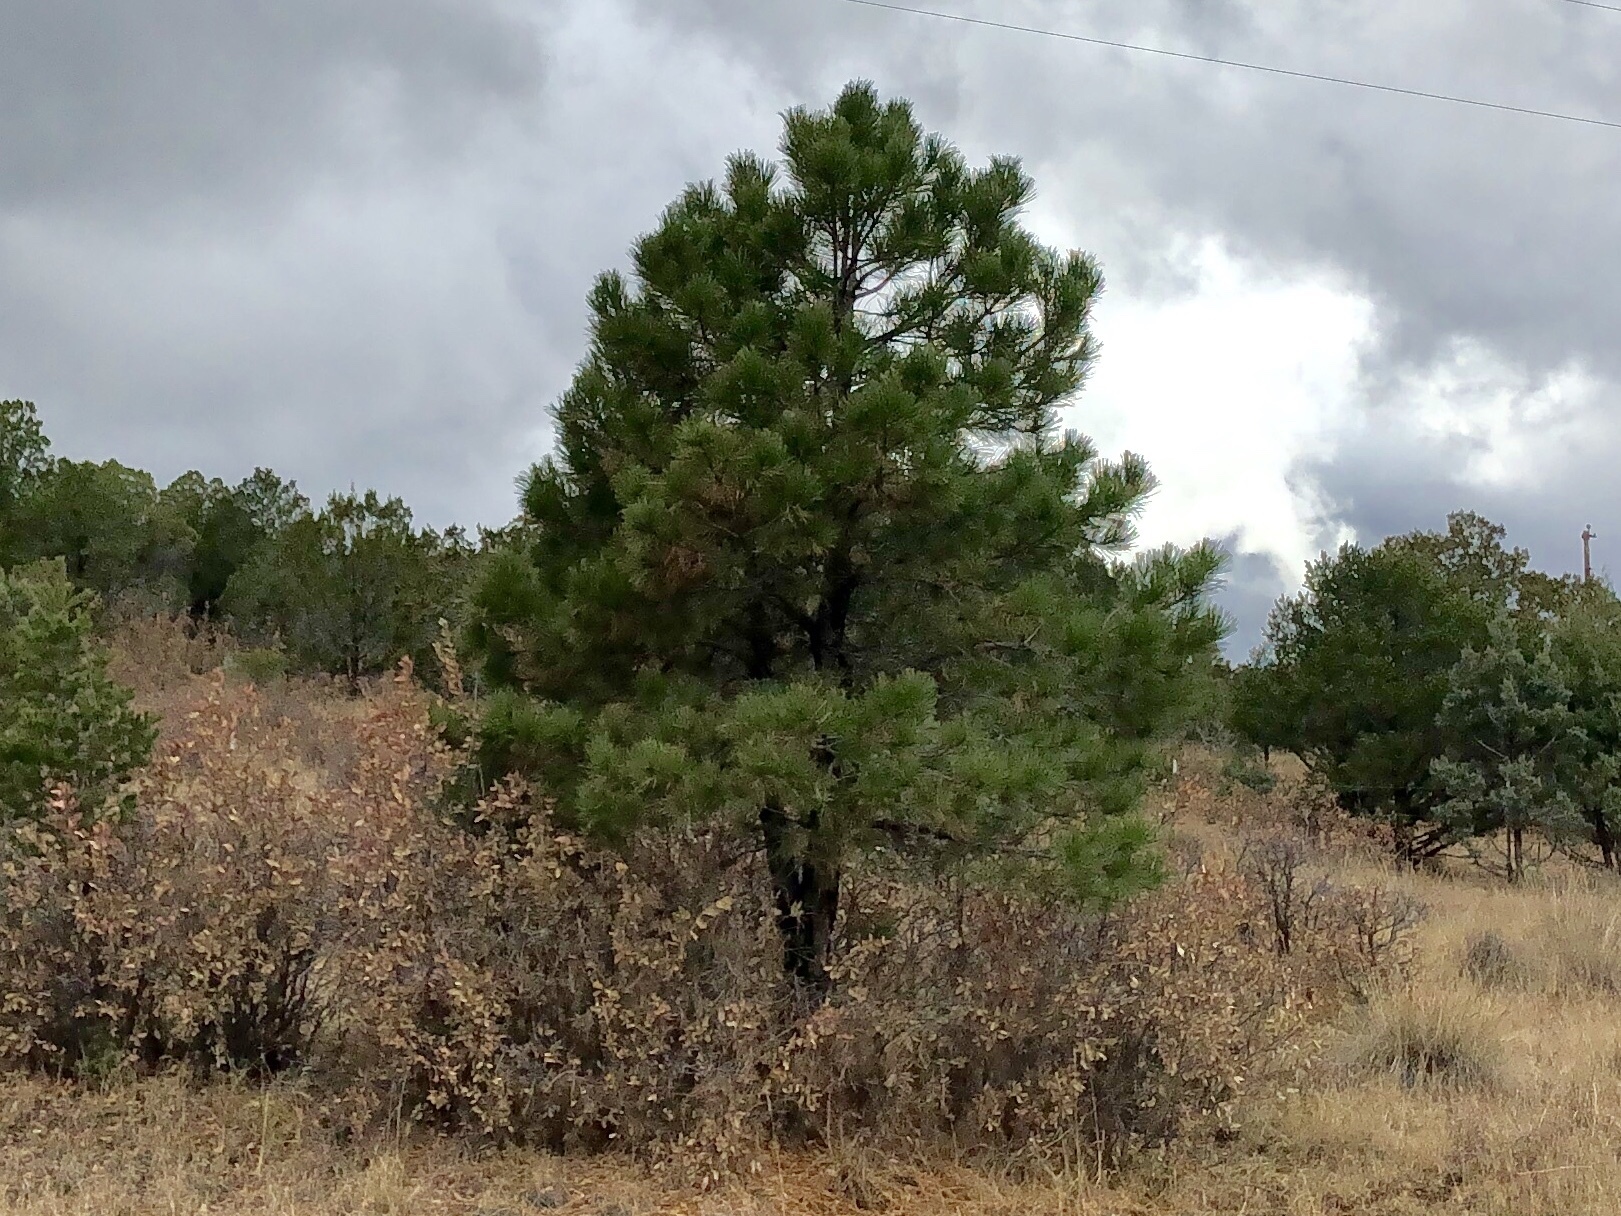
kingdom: Plantae
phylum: Tracheophyta
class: Pinopsida
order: Pinales
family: Pinaceae
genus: Pinus
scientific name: Pinus ponderosa
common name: Western yellow-pine
